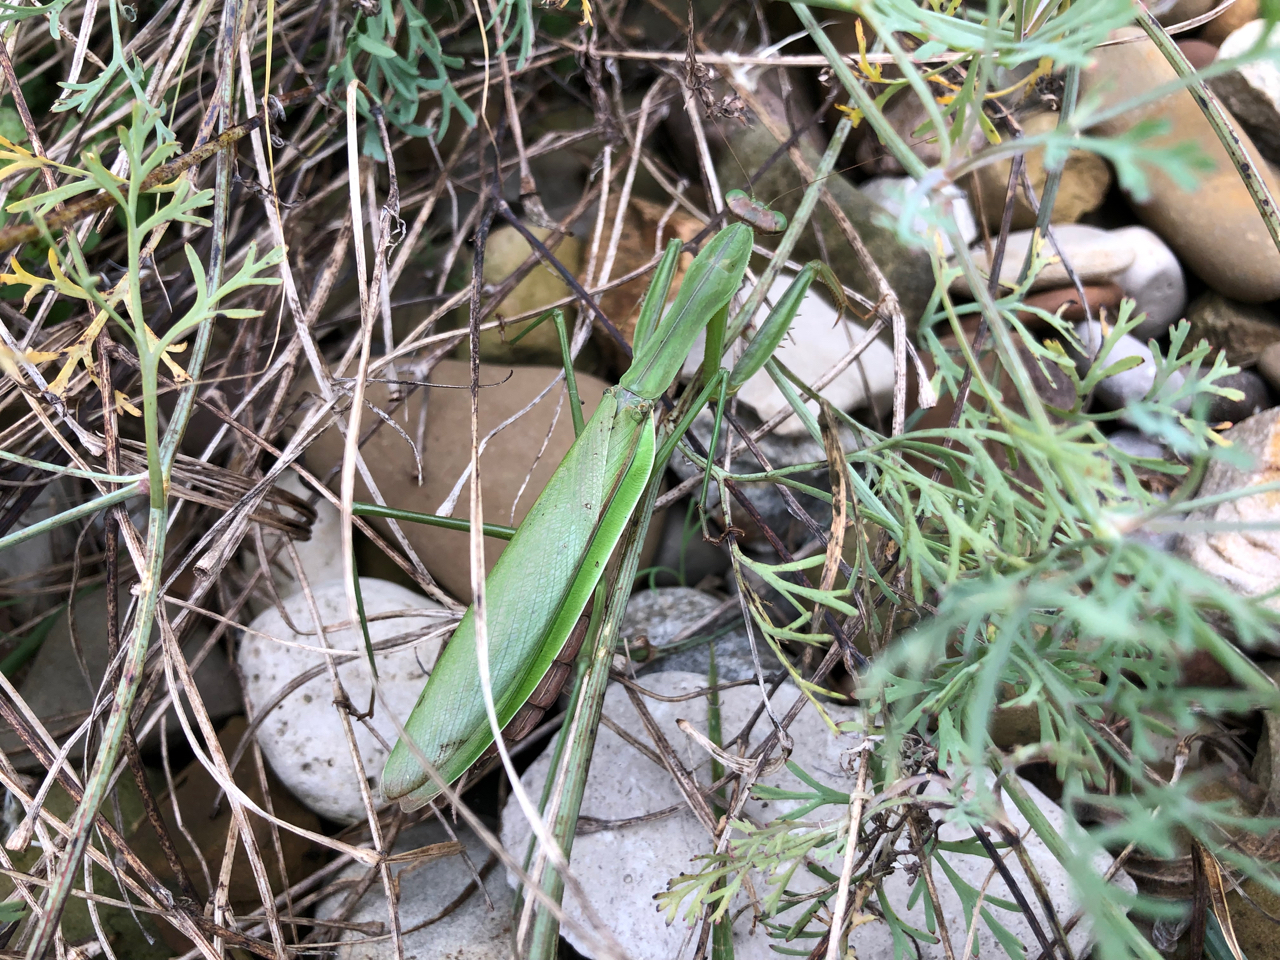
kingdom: Animalia
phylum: Arthropoda
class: Insecta
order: Mantodea
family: Mantidae
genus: Tenodera
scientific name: Tenodera sinensis
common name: Chinese mantis
